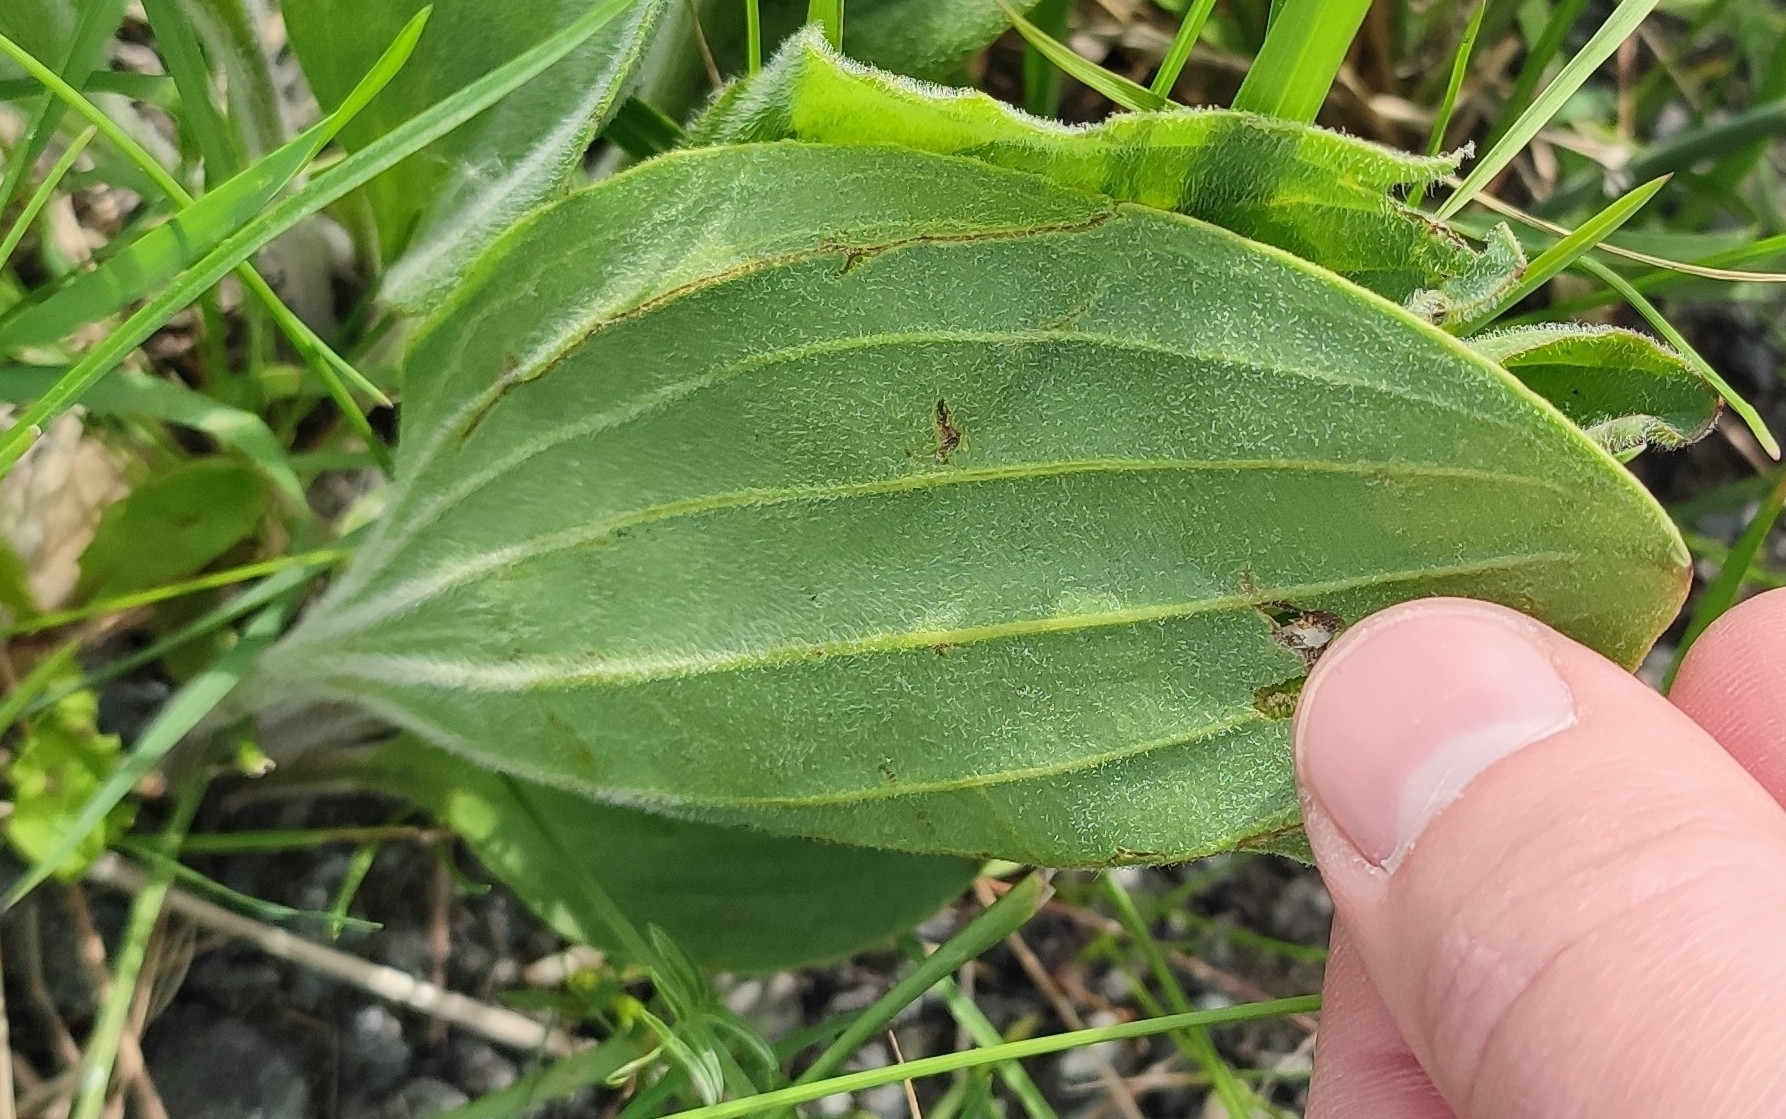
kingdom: Plantae
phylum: Tracheophyta
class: Magnoliopsida
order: Lamiales
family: Plantaginaceae
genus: Plantago
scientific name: Plantago cornuti
